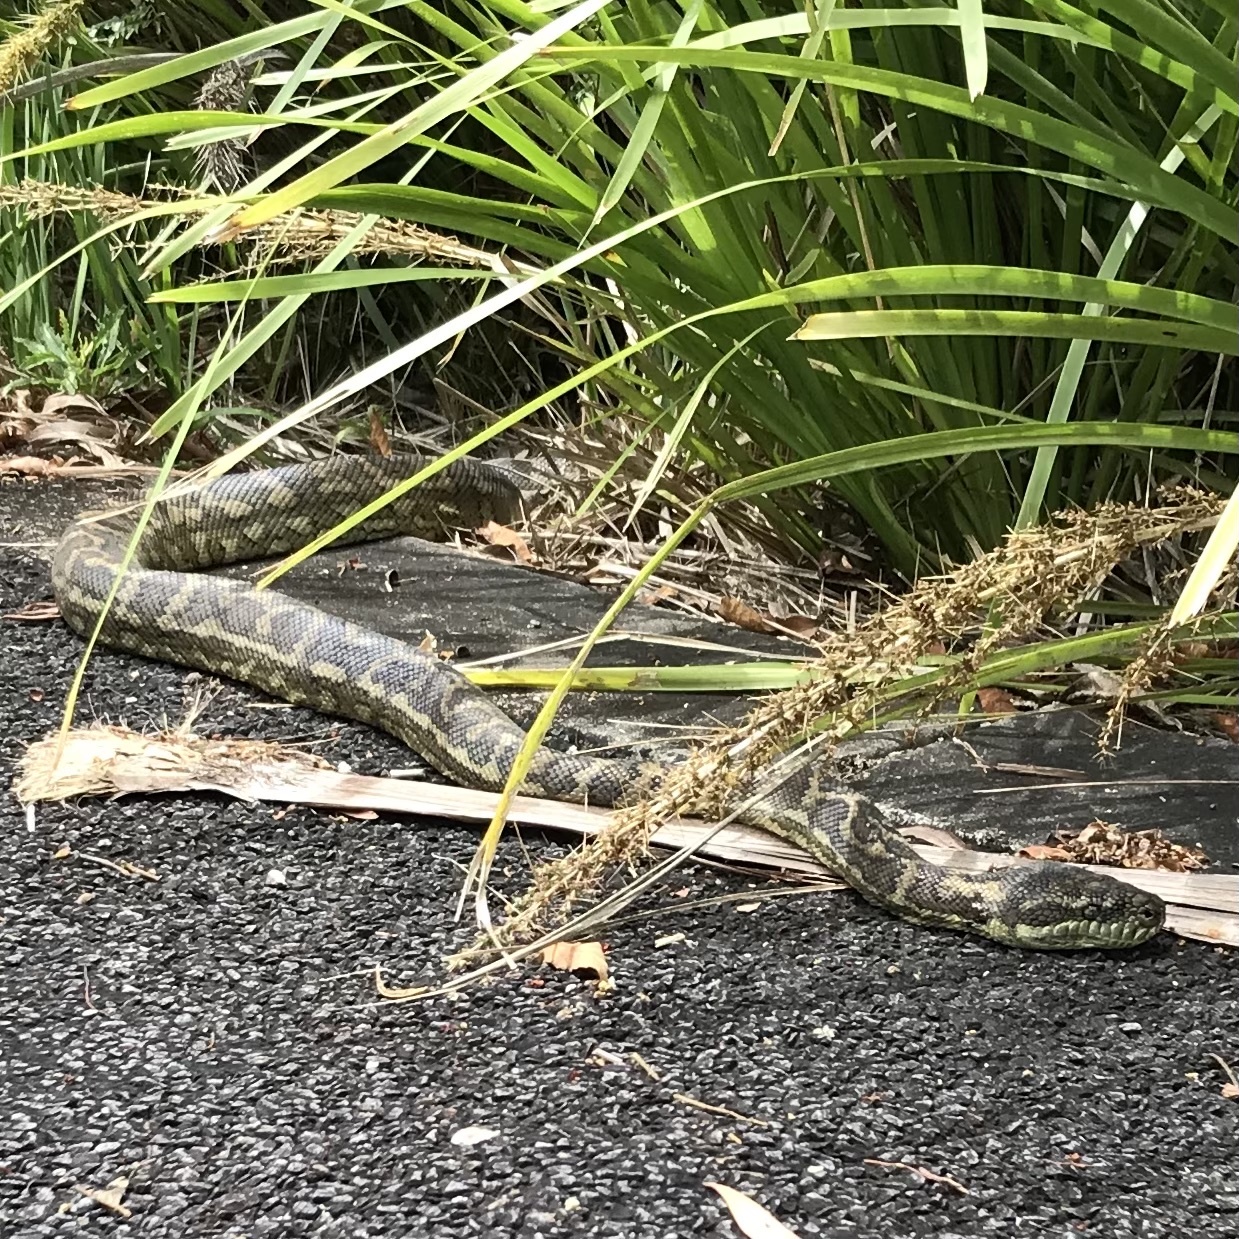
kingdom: Animalia
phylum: Chordata
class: Squamata
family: Pythonidae
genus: Morelia
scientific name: Morelia spilota
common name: Carpet python
